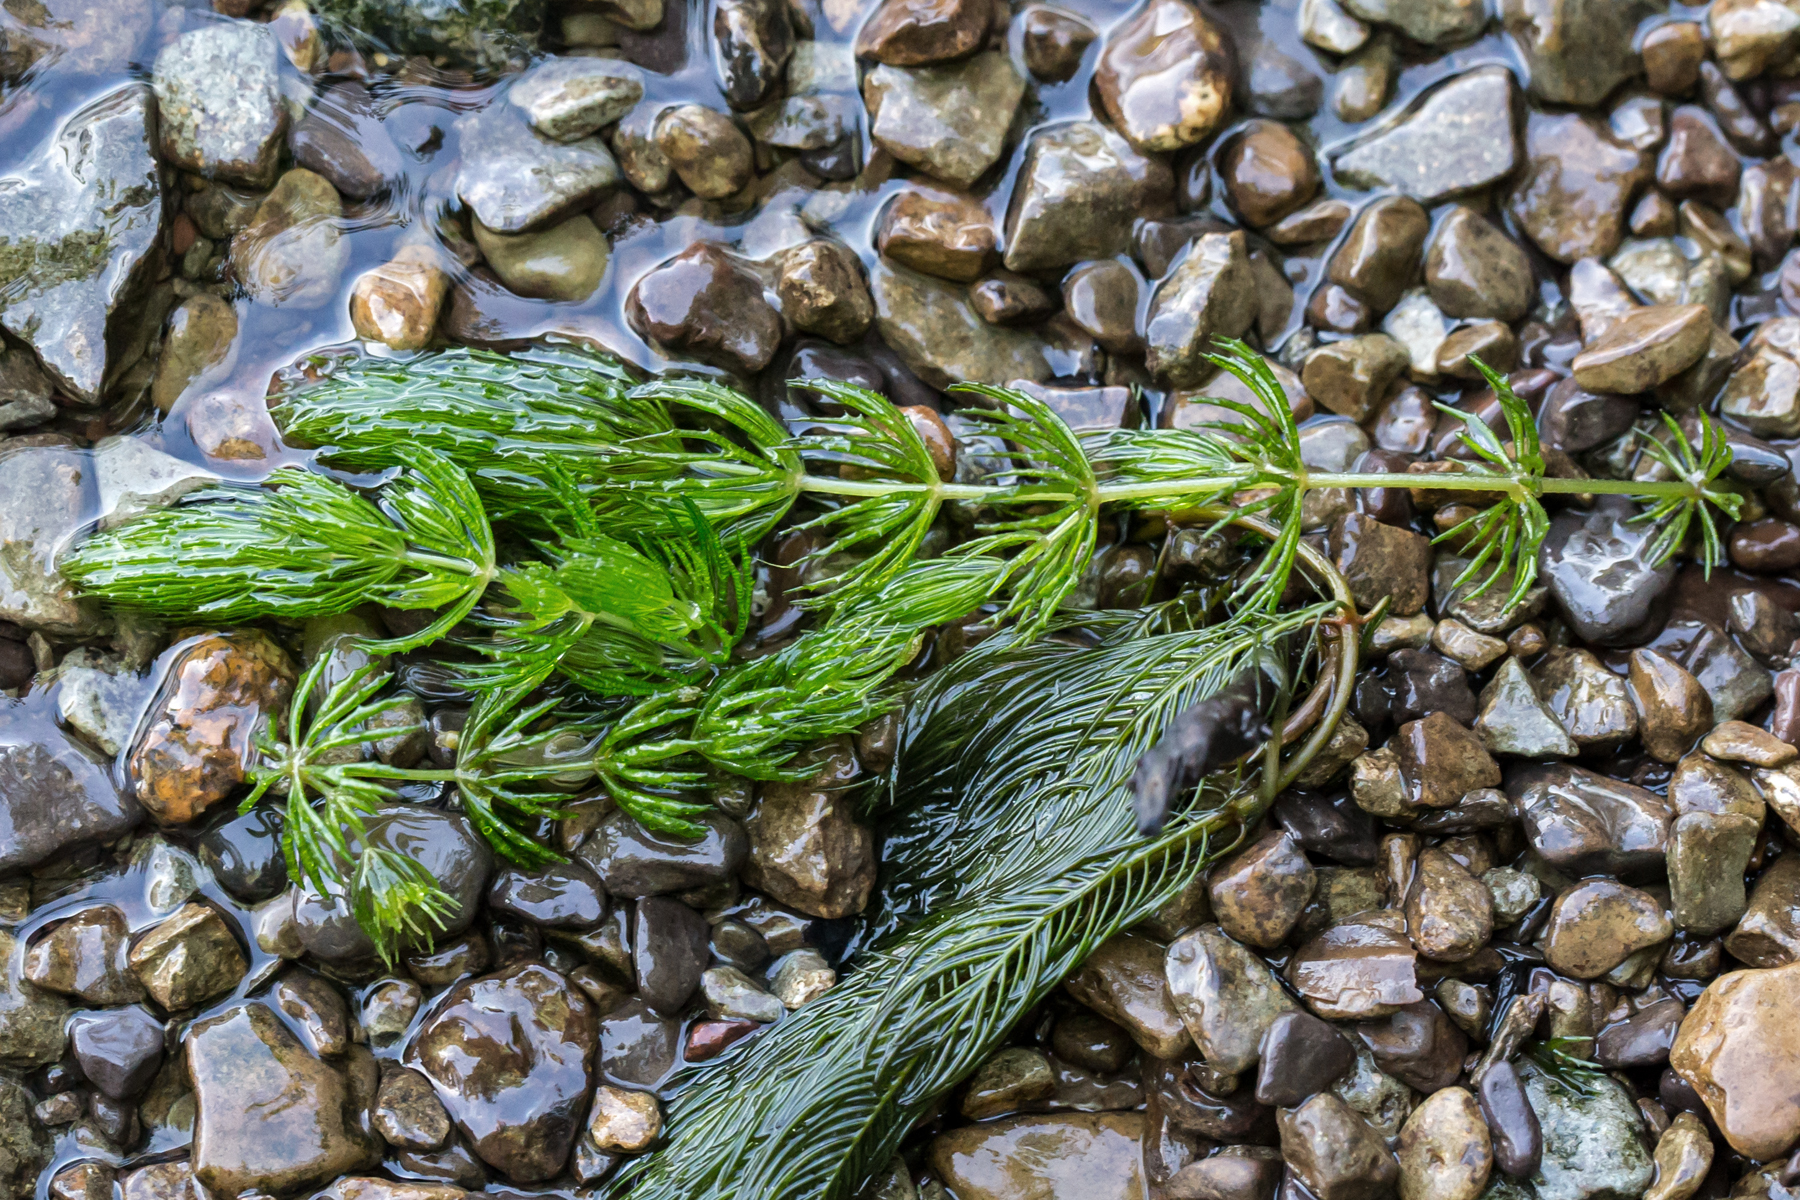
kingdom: Plantae
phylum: Tracheophyta
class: Magnoliopsida
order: Ceratophyllales
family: Ceratophyllaceae
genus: Ceratophyllum
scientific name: Ceratophyllum demersum
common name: Rigid hornwort
